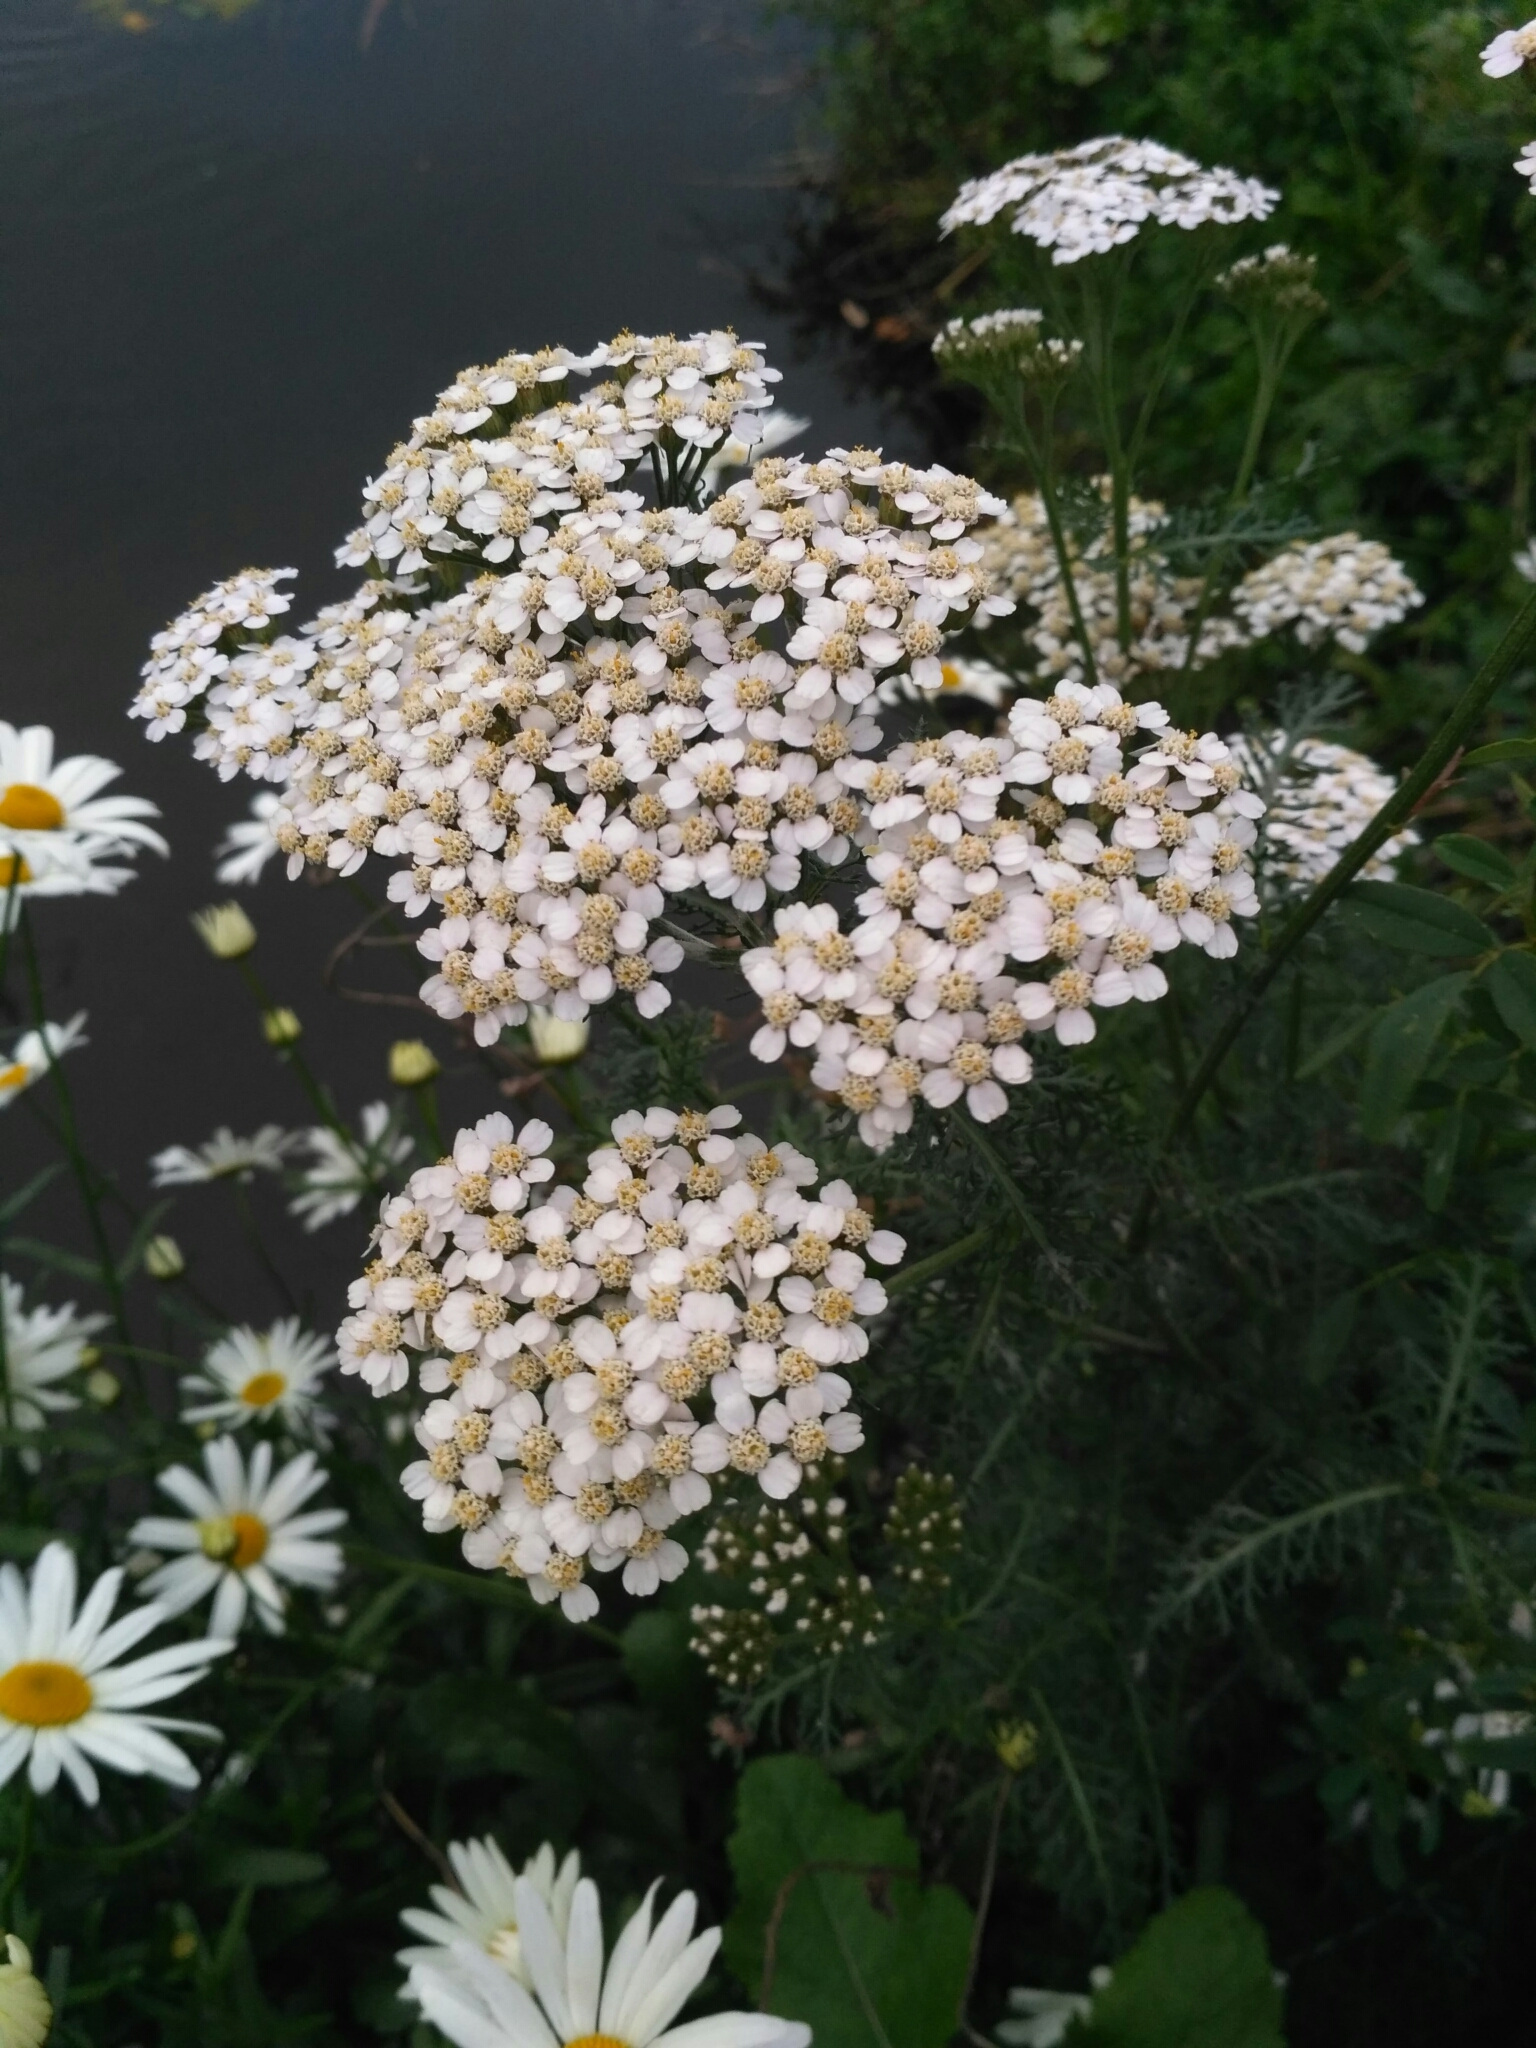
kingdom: Plantae
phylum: Tracheophyta
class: Magnoliopsida
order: Asterales
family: Asteraceae
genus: Achillea
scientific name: Achillea millefolium
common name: Yarrow
